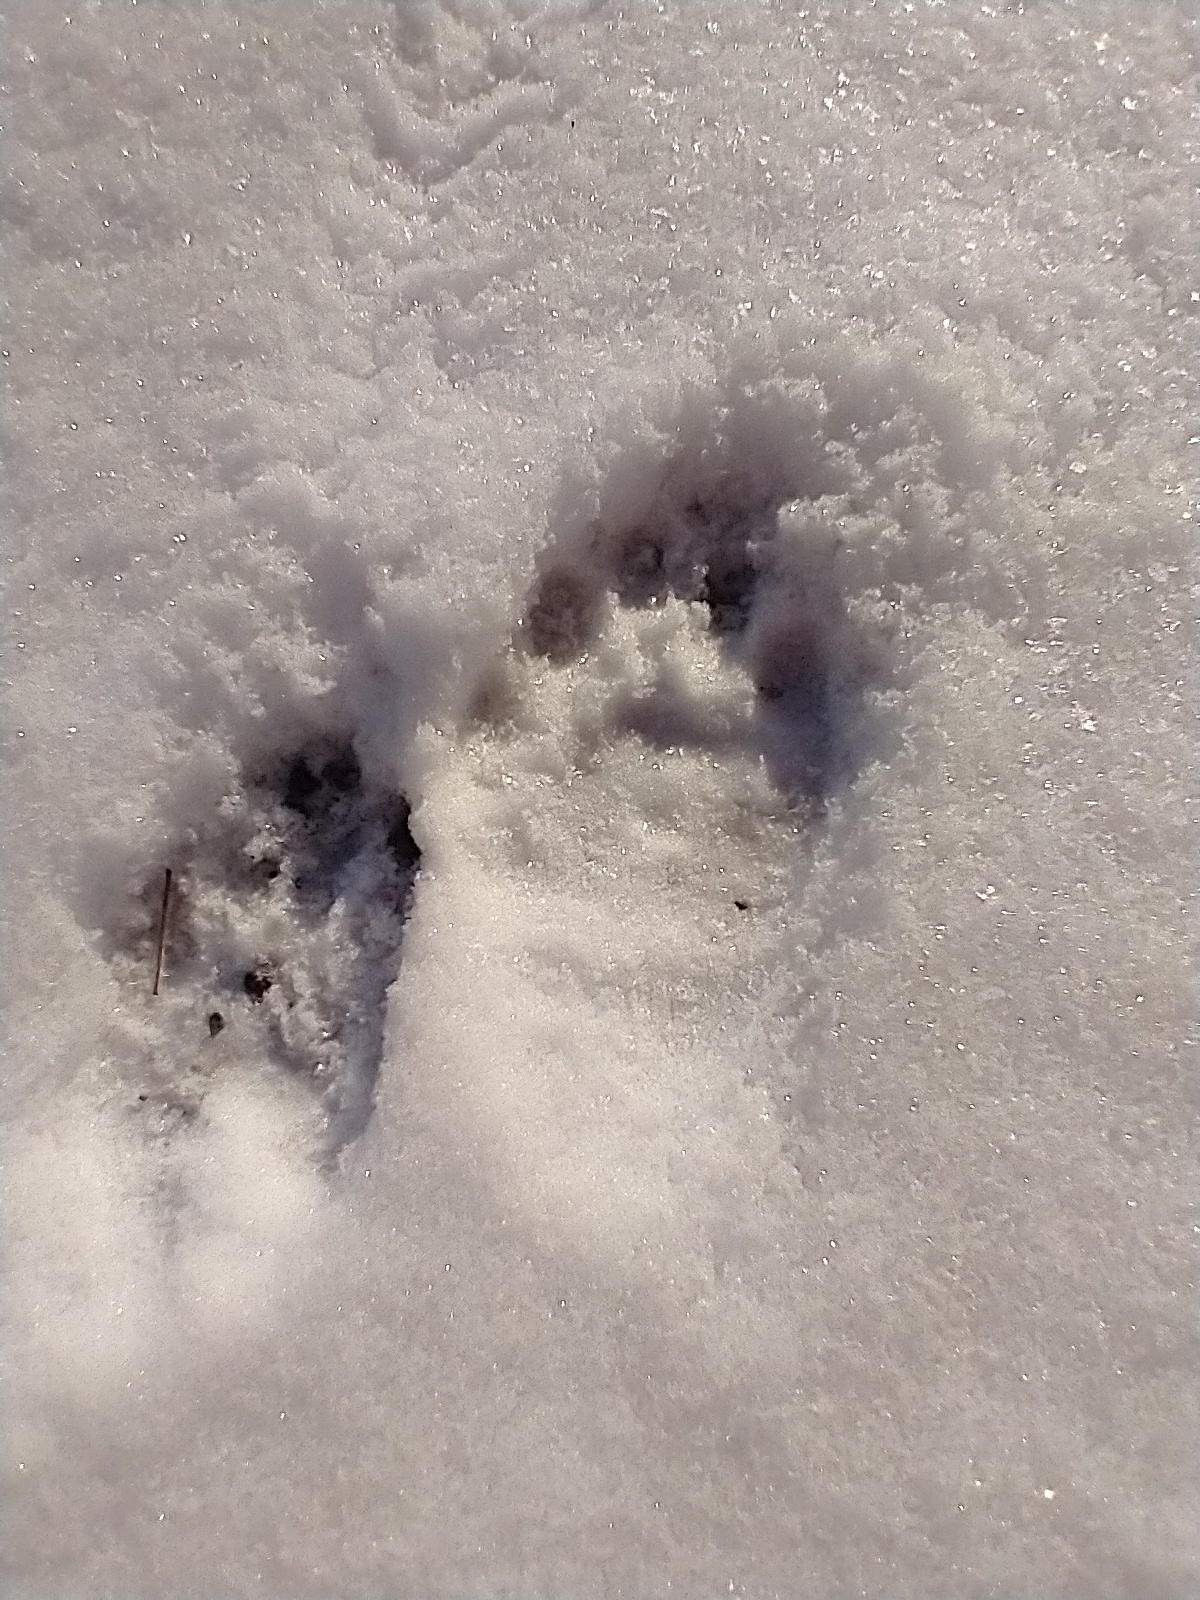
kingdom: Animalia
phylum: Chordata
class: Mammalia
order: Carnivora
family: Procyonidae
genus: Procyon
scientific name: Procyon lotor
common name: Raccoon
